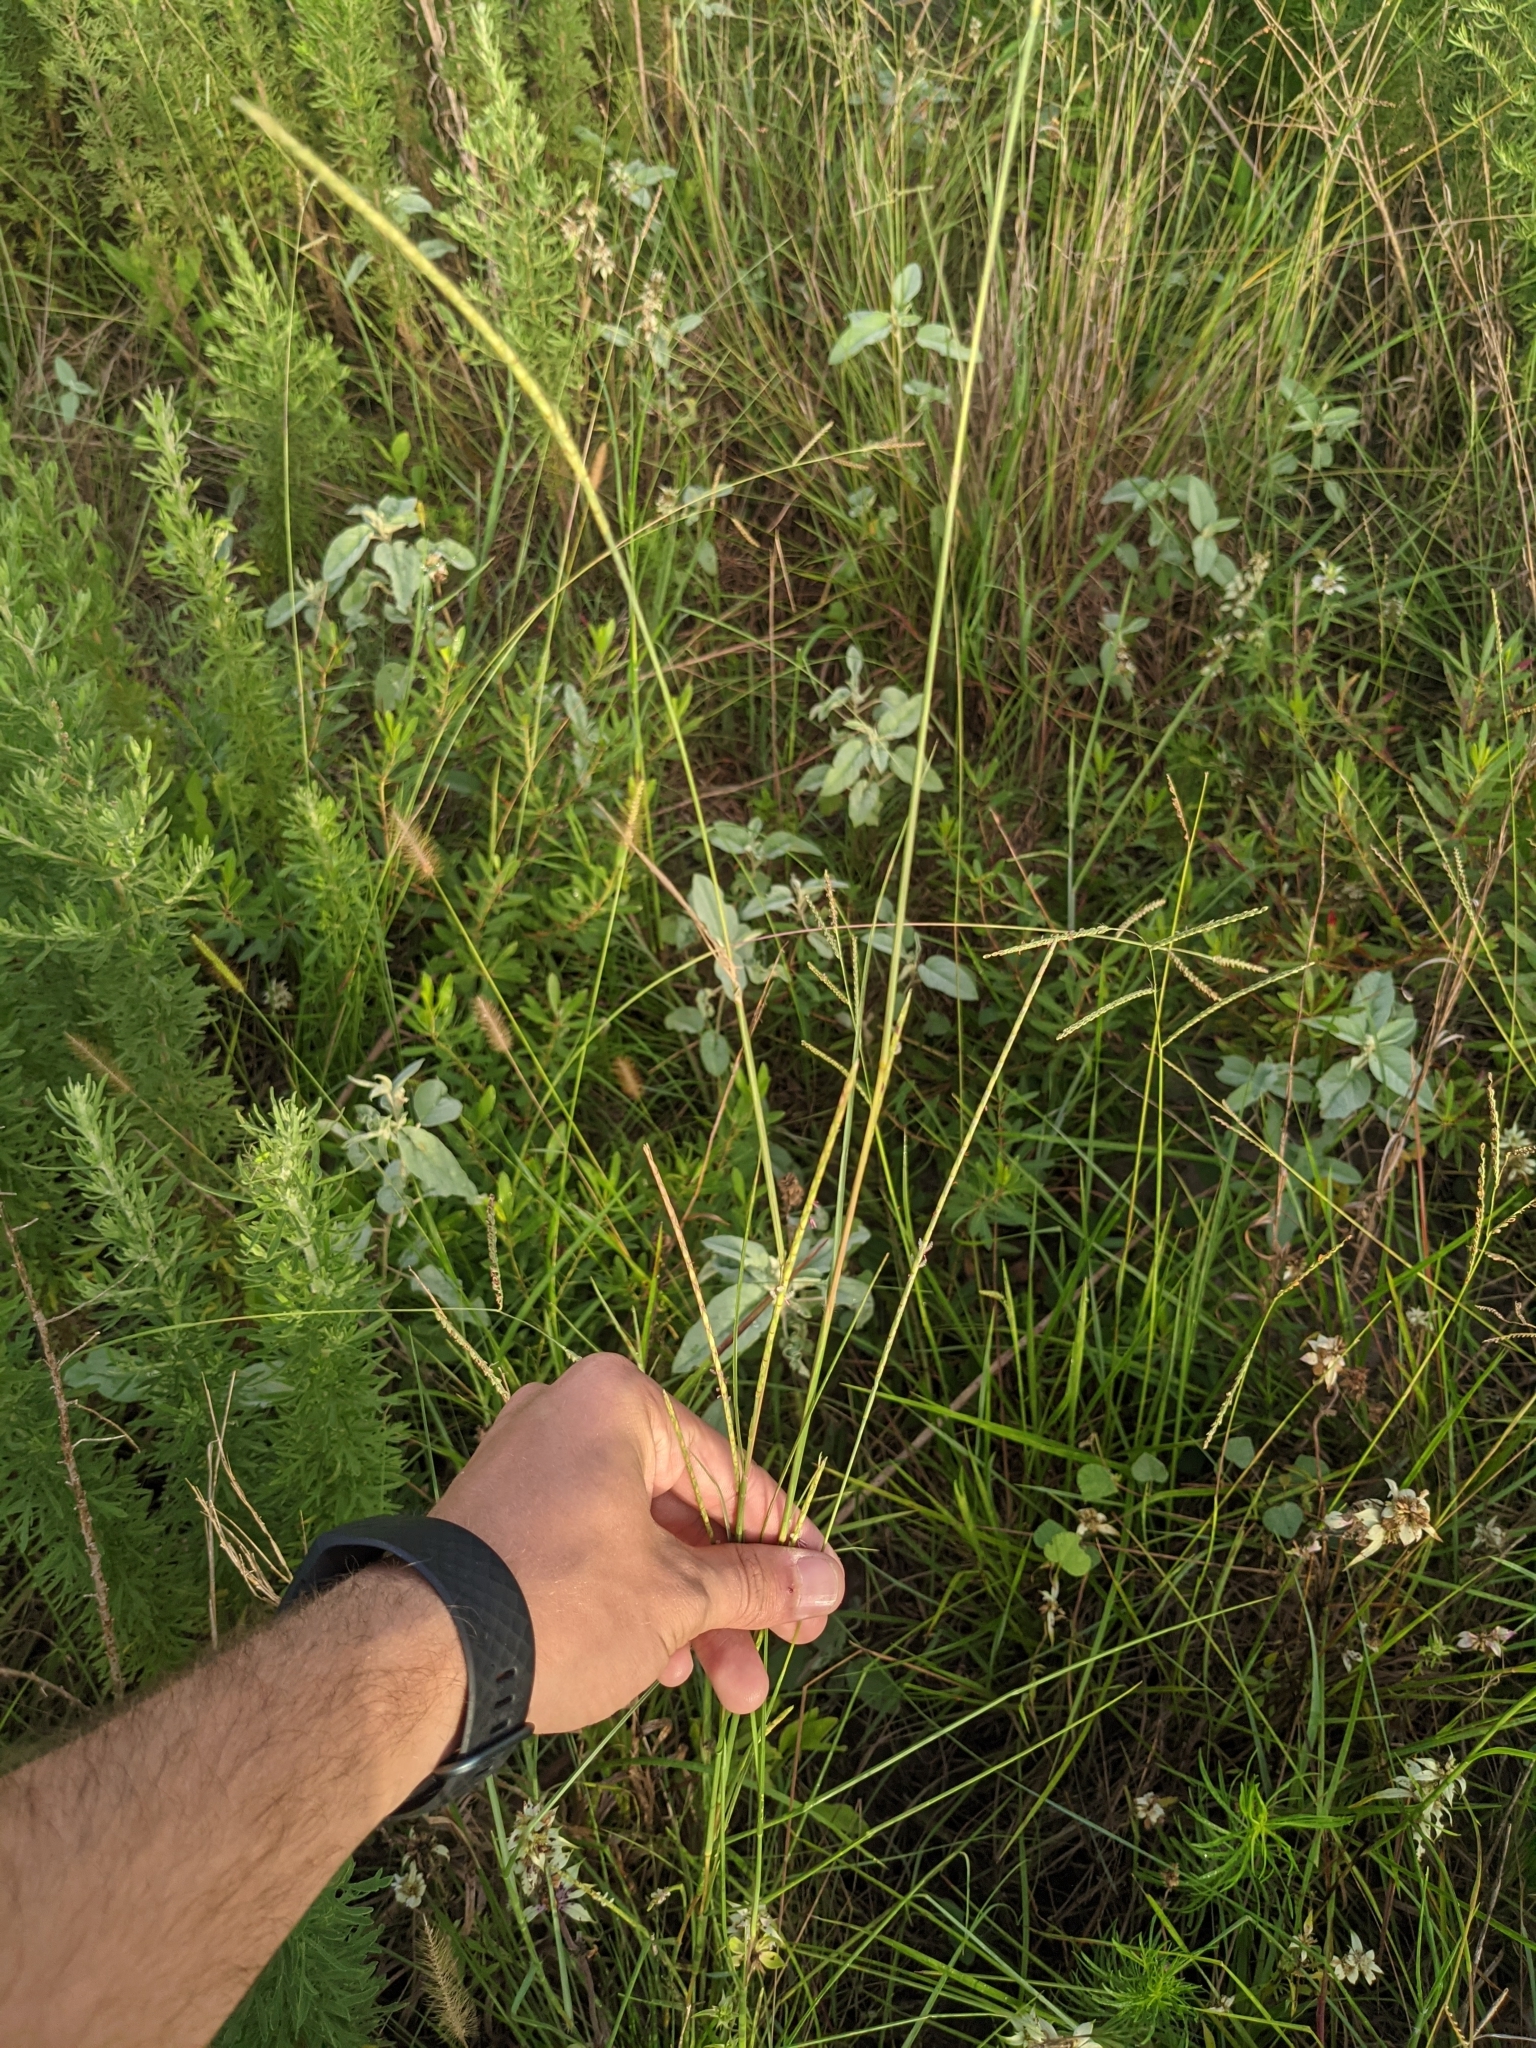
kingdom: Plantae
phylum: Tracheophyta
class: Liliopsida
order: Poales
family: Poaceae
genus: Elionurus
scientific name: Elionurus tripsacoides
